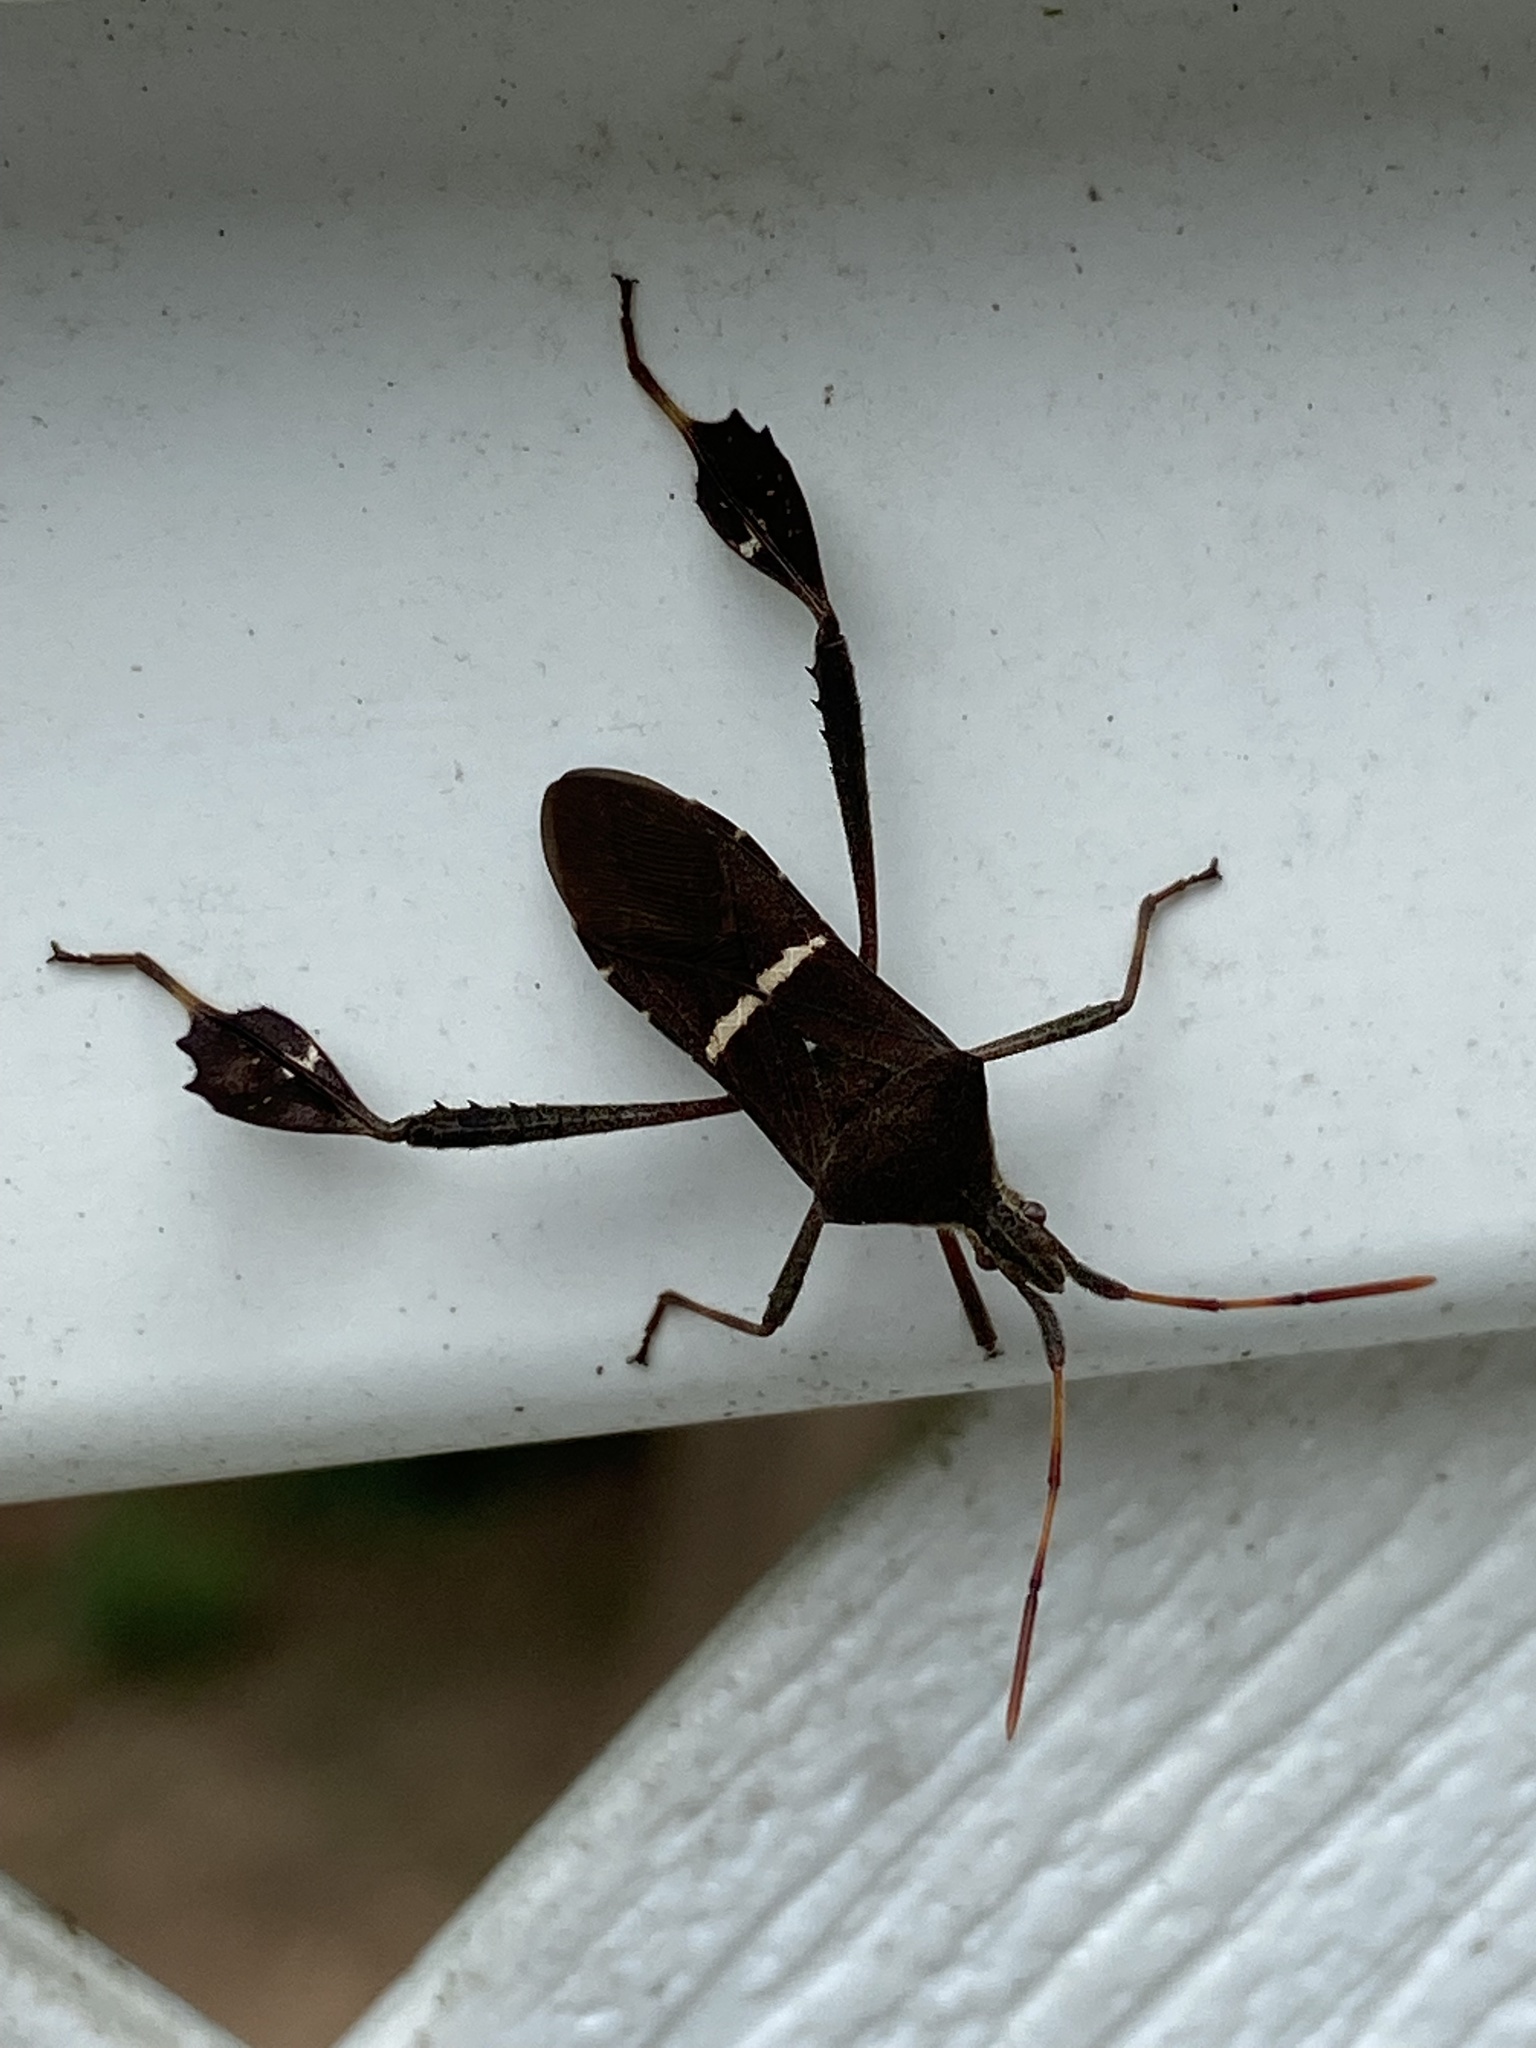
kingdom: Animalia
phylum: Arthropoda
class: Insecta
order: Hemiptera
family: Coreidae
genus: Leptoglossus
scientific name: Leptoglossus phyllopus
